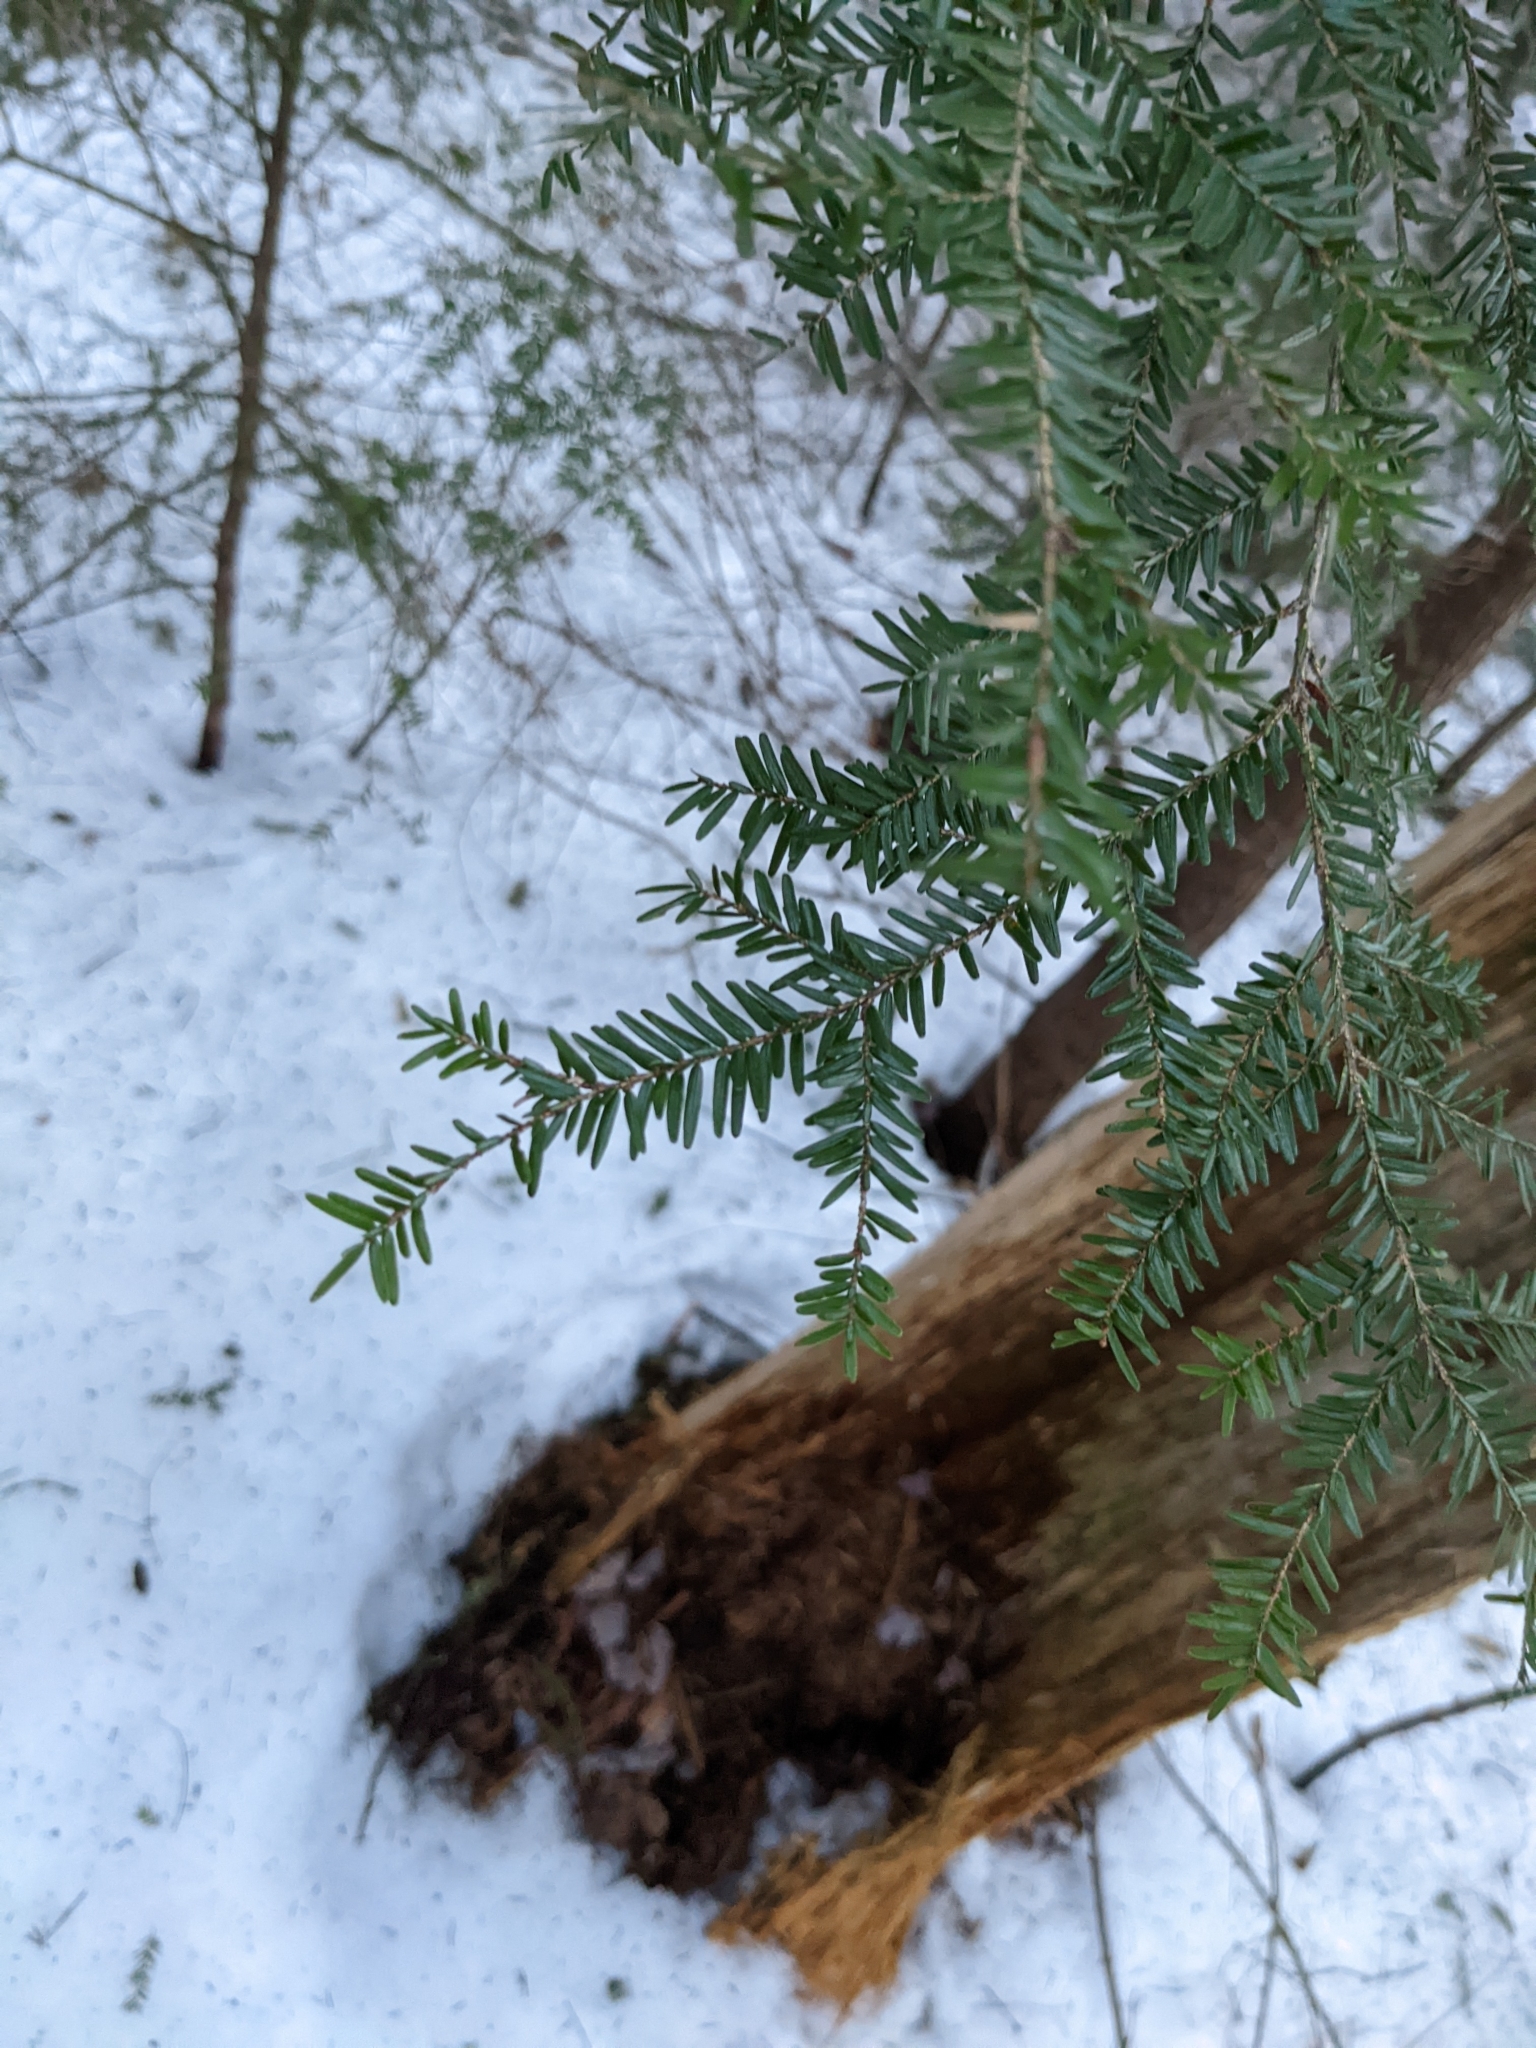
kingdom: Plantae
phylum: Tracheophyta
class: Pinopsida
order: Pinales
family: Pinaceae
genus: Tsuga
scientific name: Tsuga canadensis
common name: Eastern hemlock
